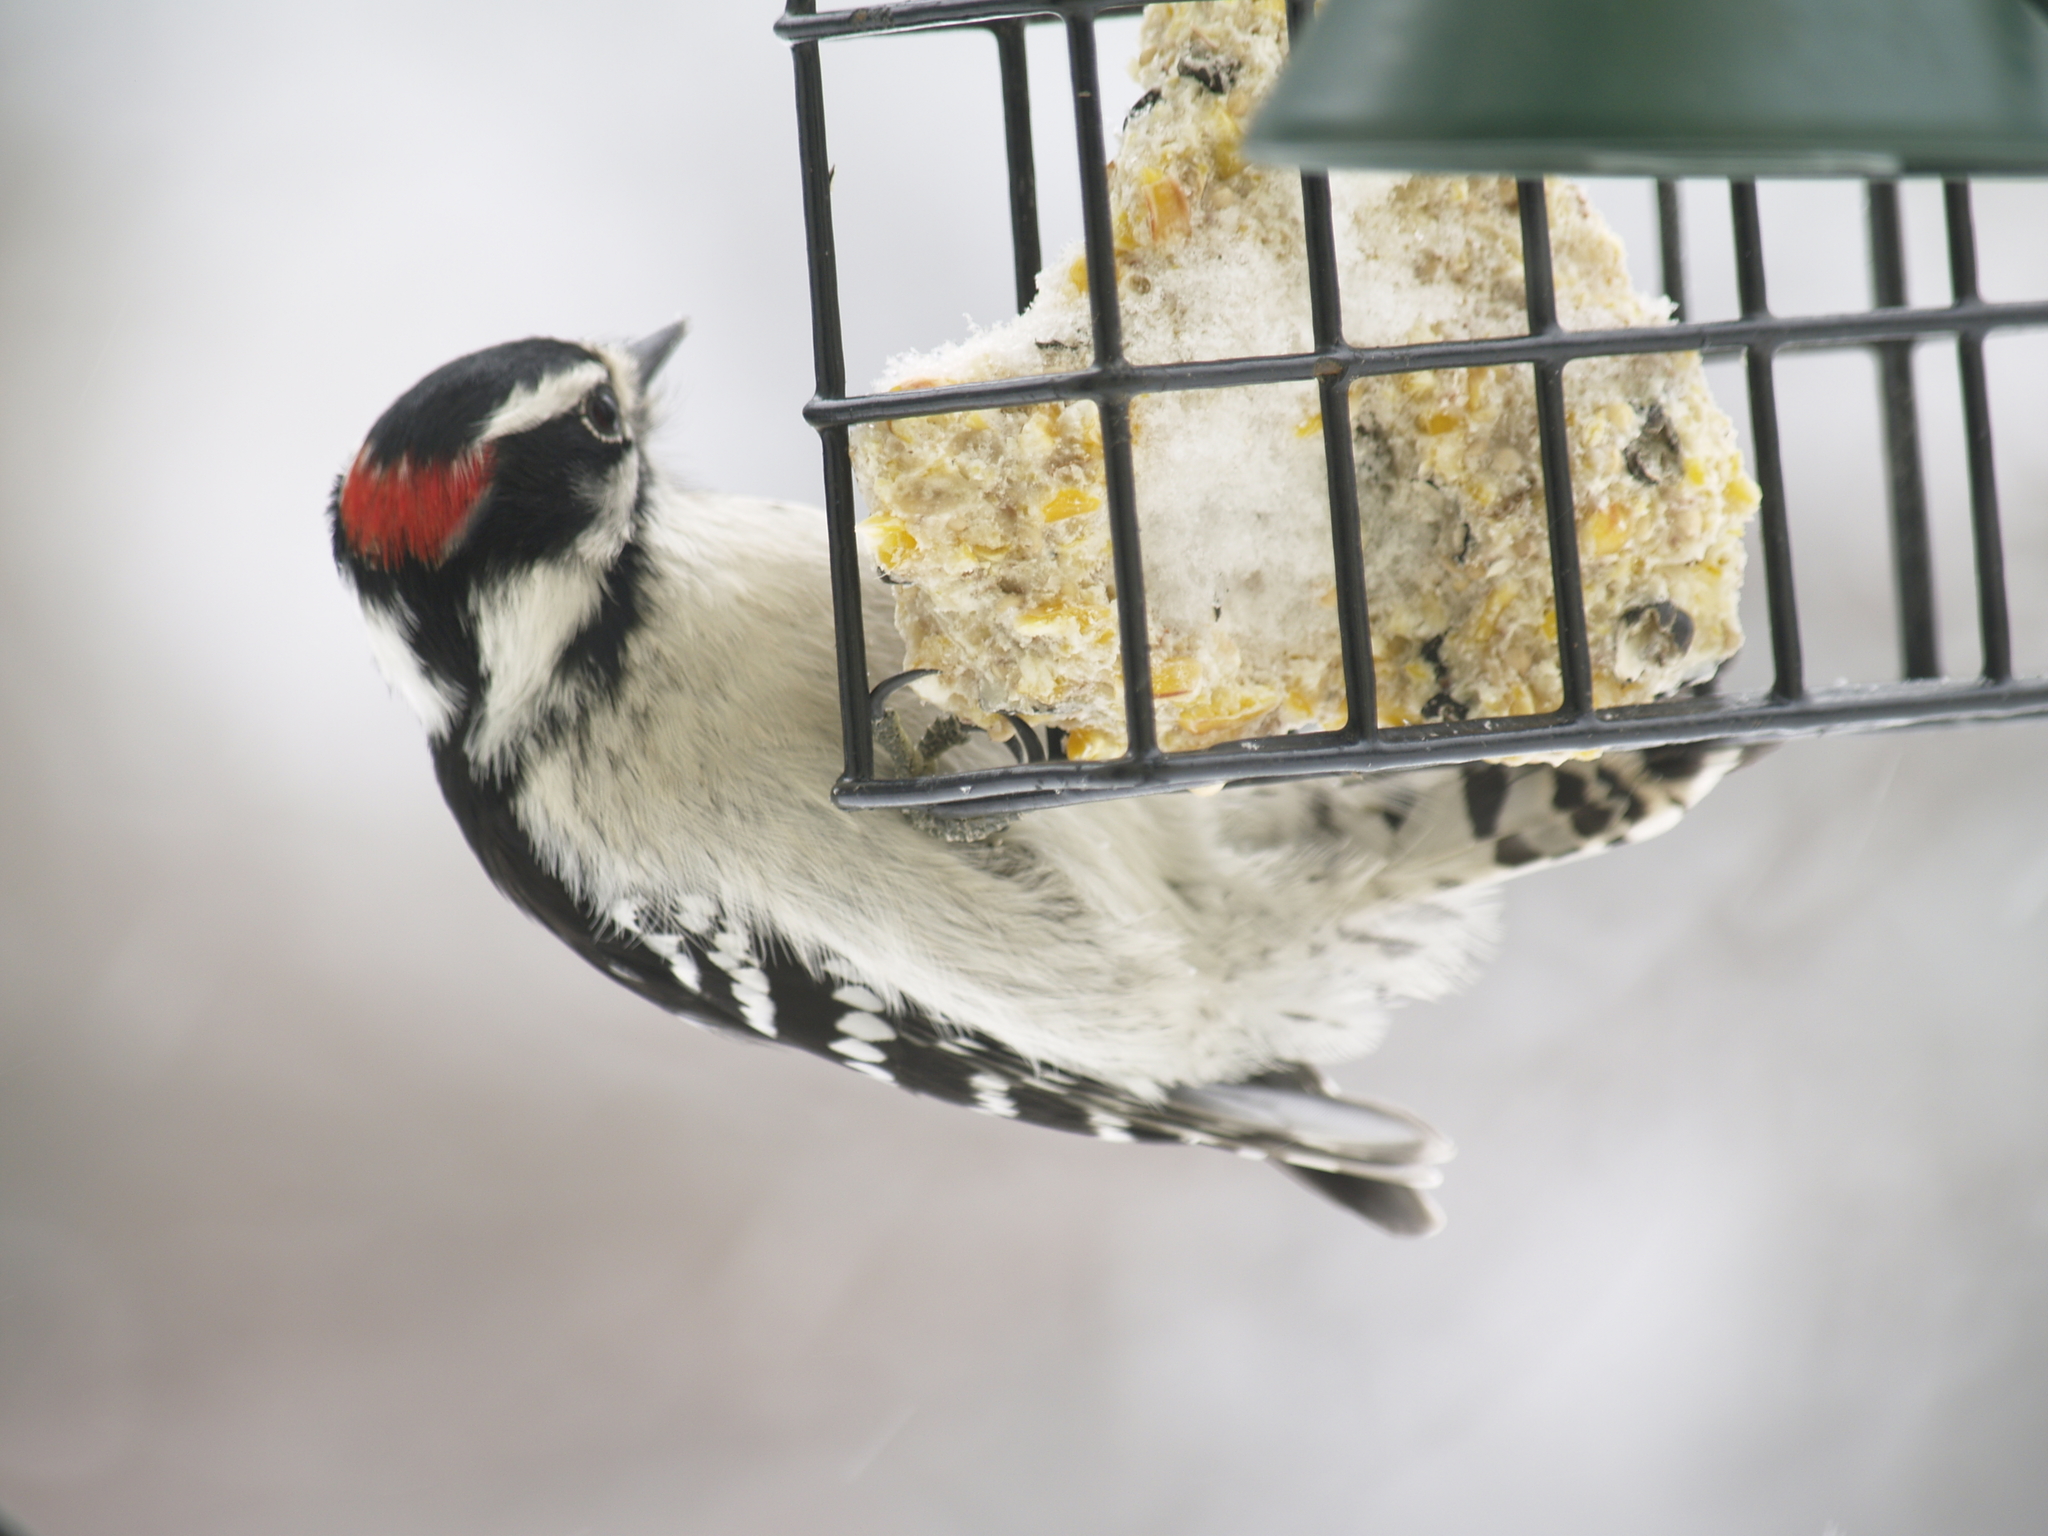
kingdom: Animalia
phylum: Chordata
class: Aves
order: Piciformes
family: Picidae
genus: Dryobates
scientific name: Dryobates pubescens
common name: Downy woodpecker
